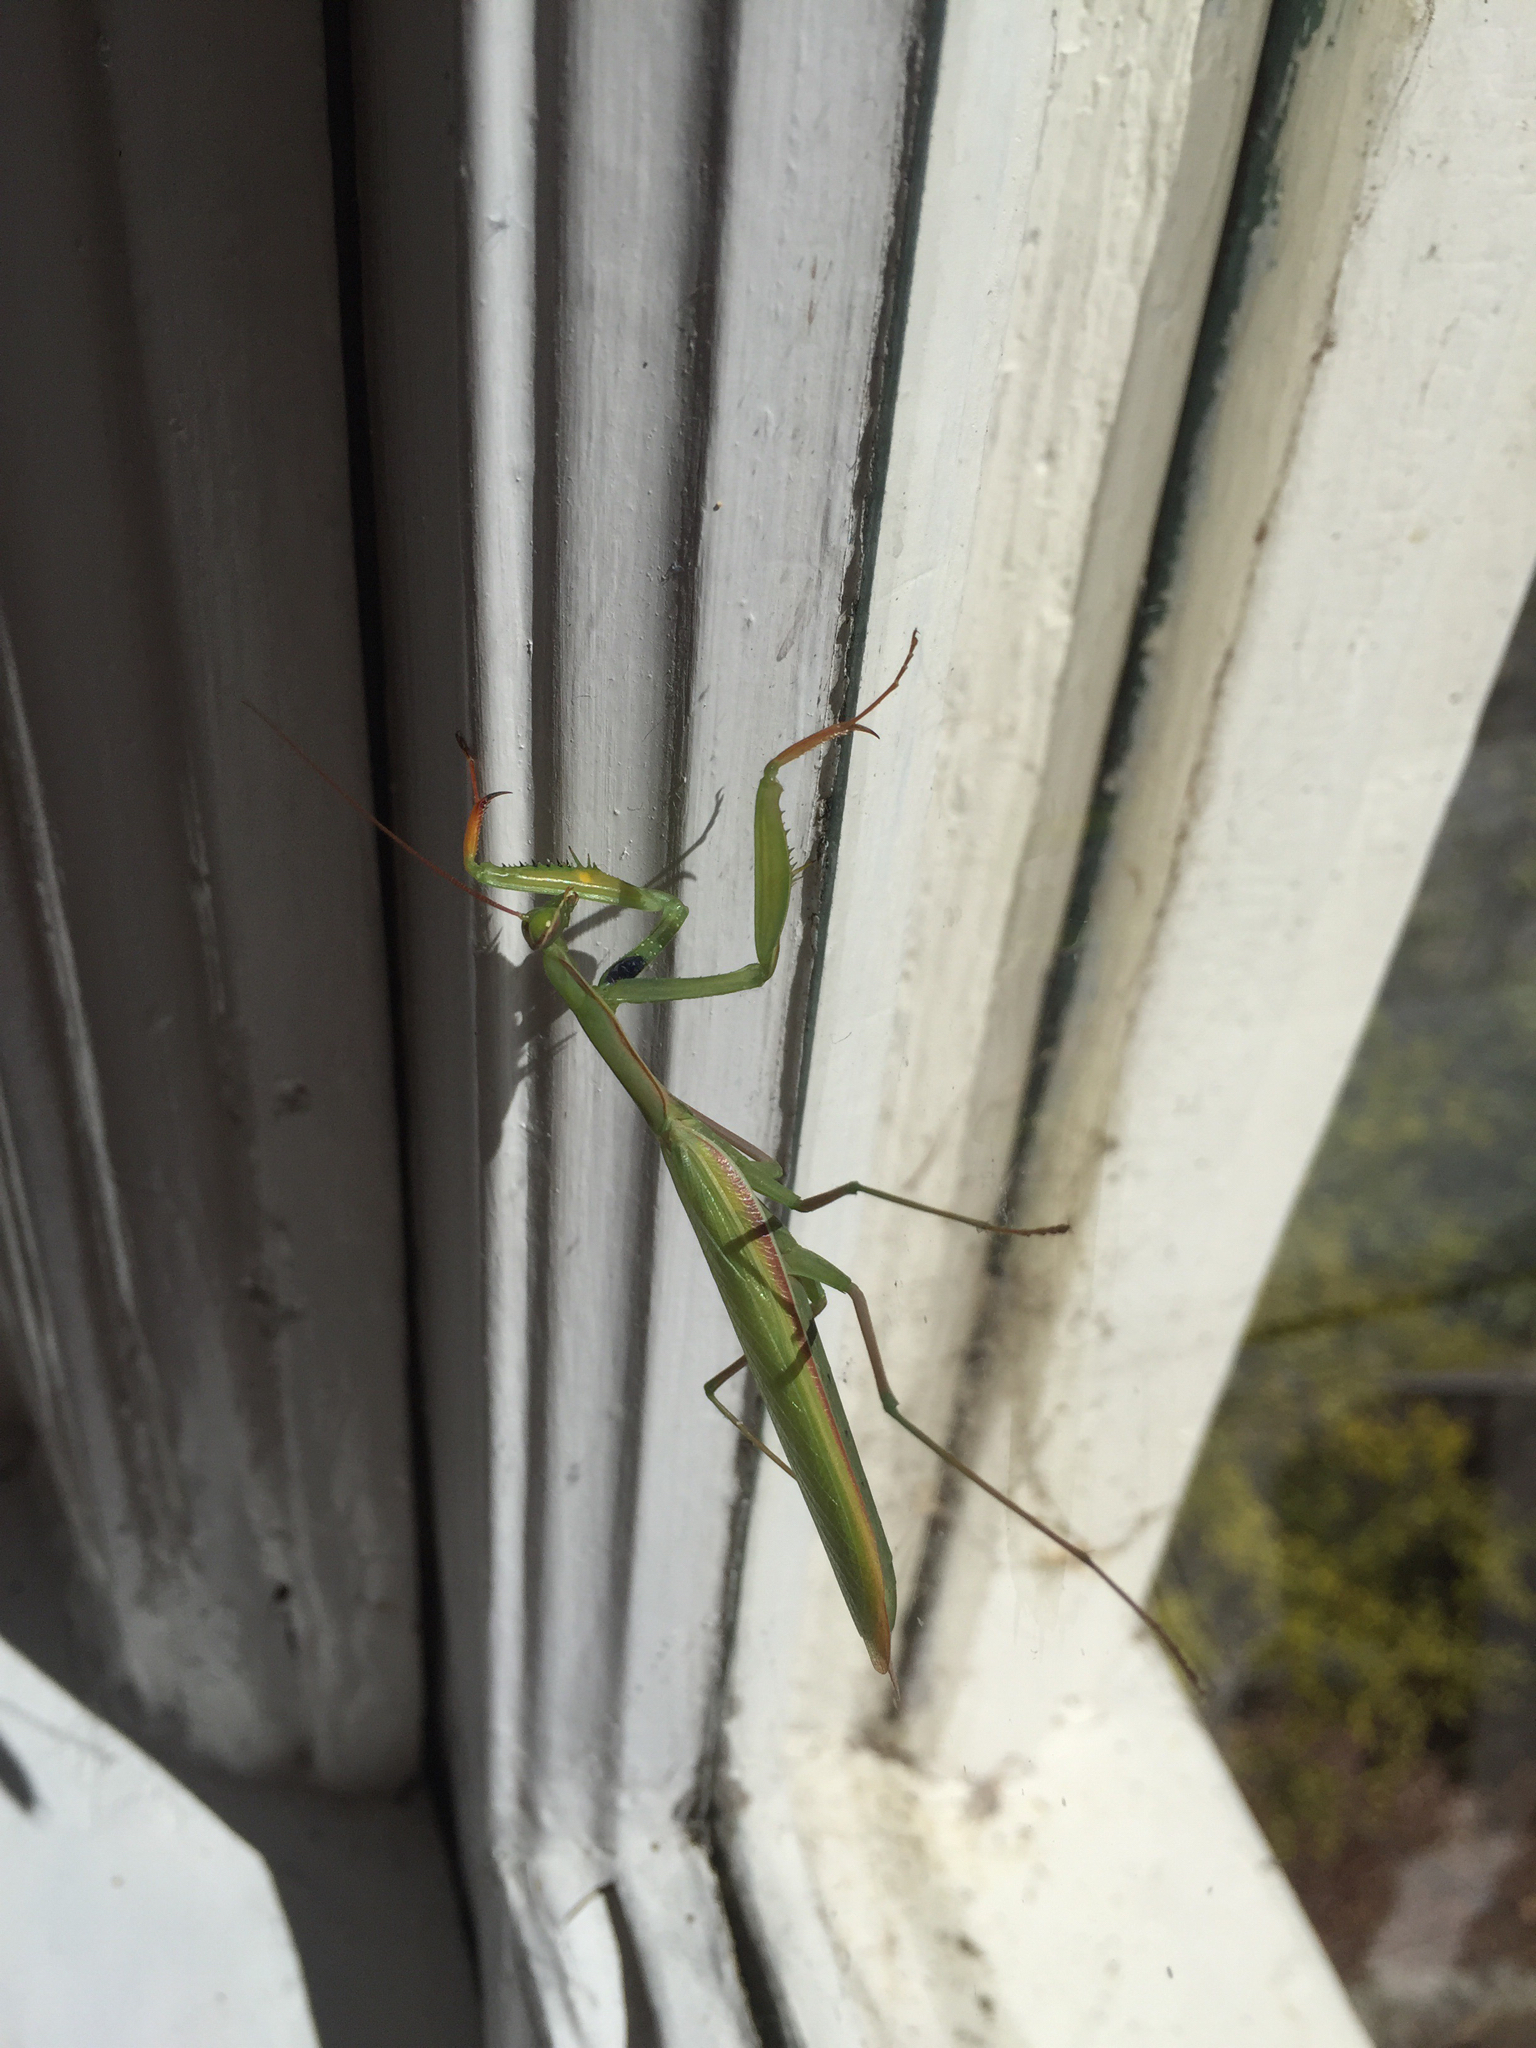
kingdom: Animalia
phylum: Arthropoda
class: Insecta
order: Mantodea
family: Mantidae
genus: Mantis
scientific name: Mantis religiosa
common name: Praying mantis
